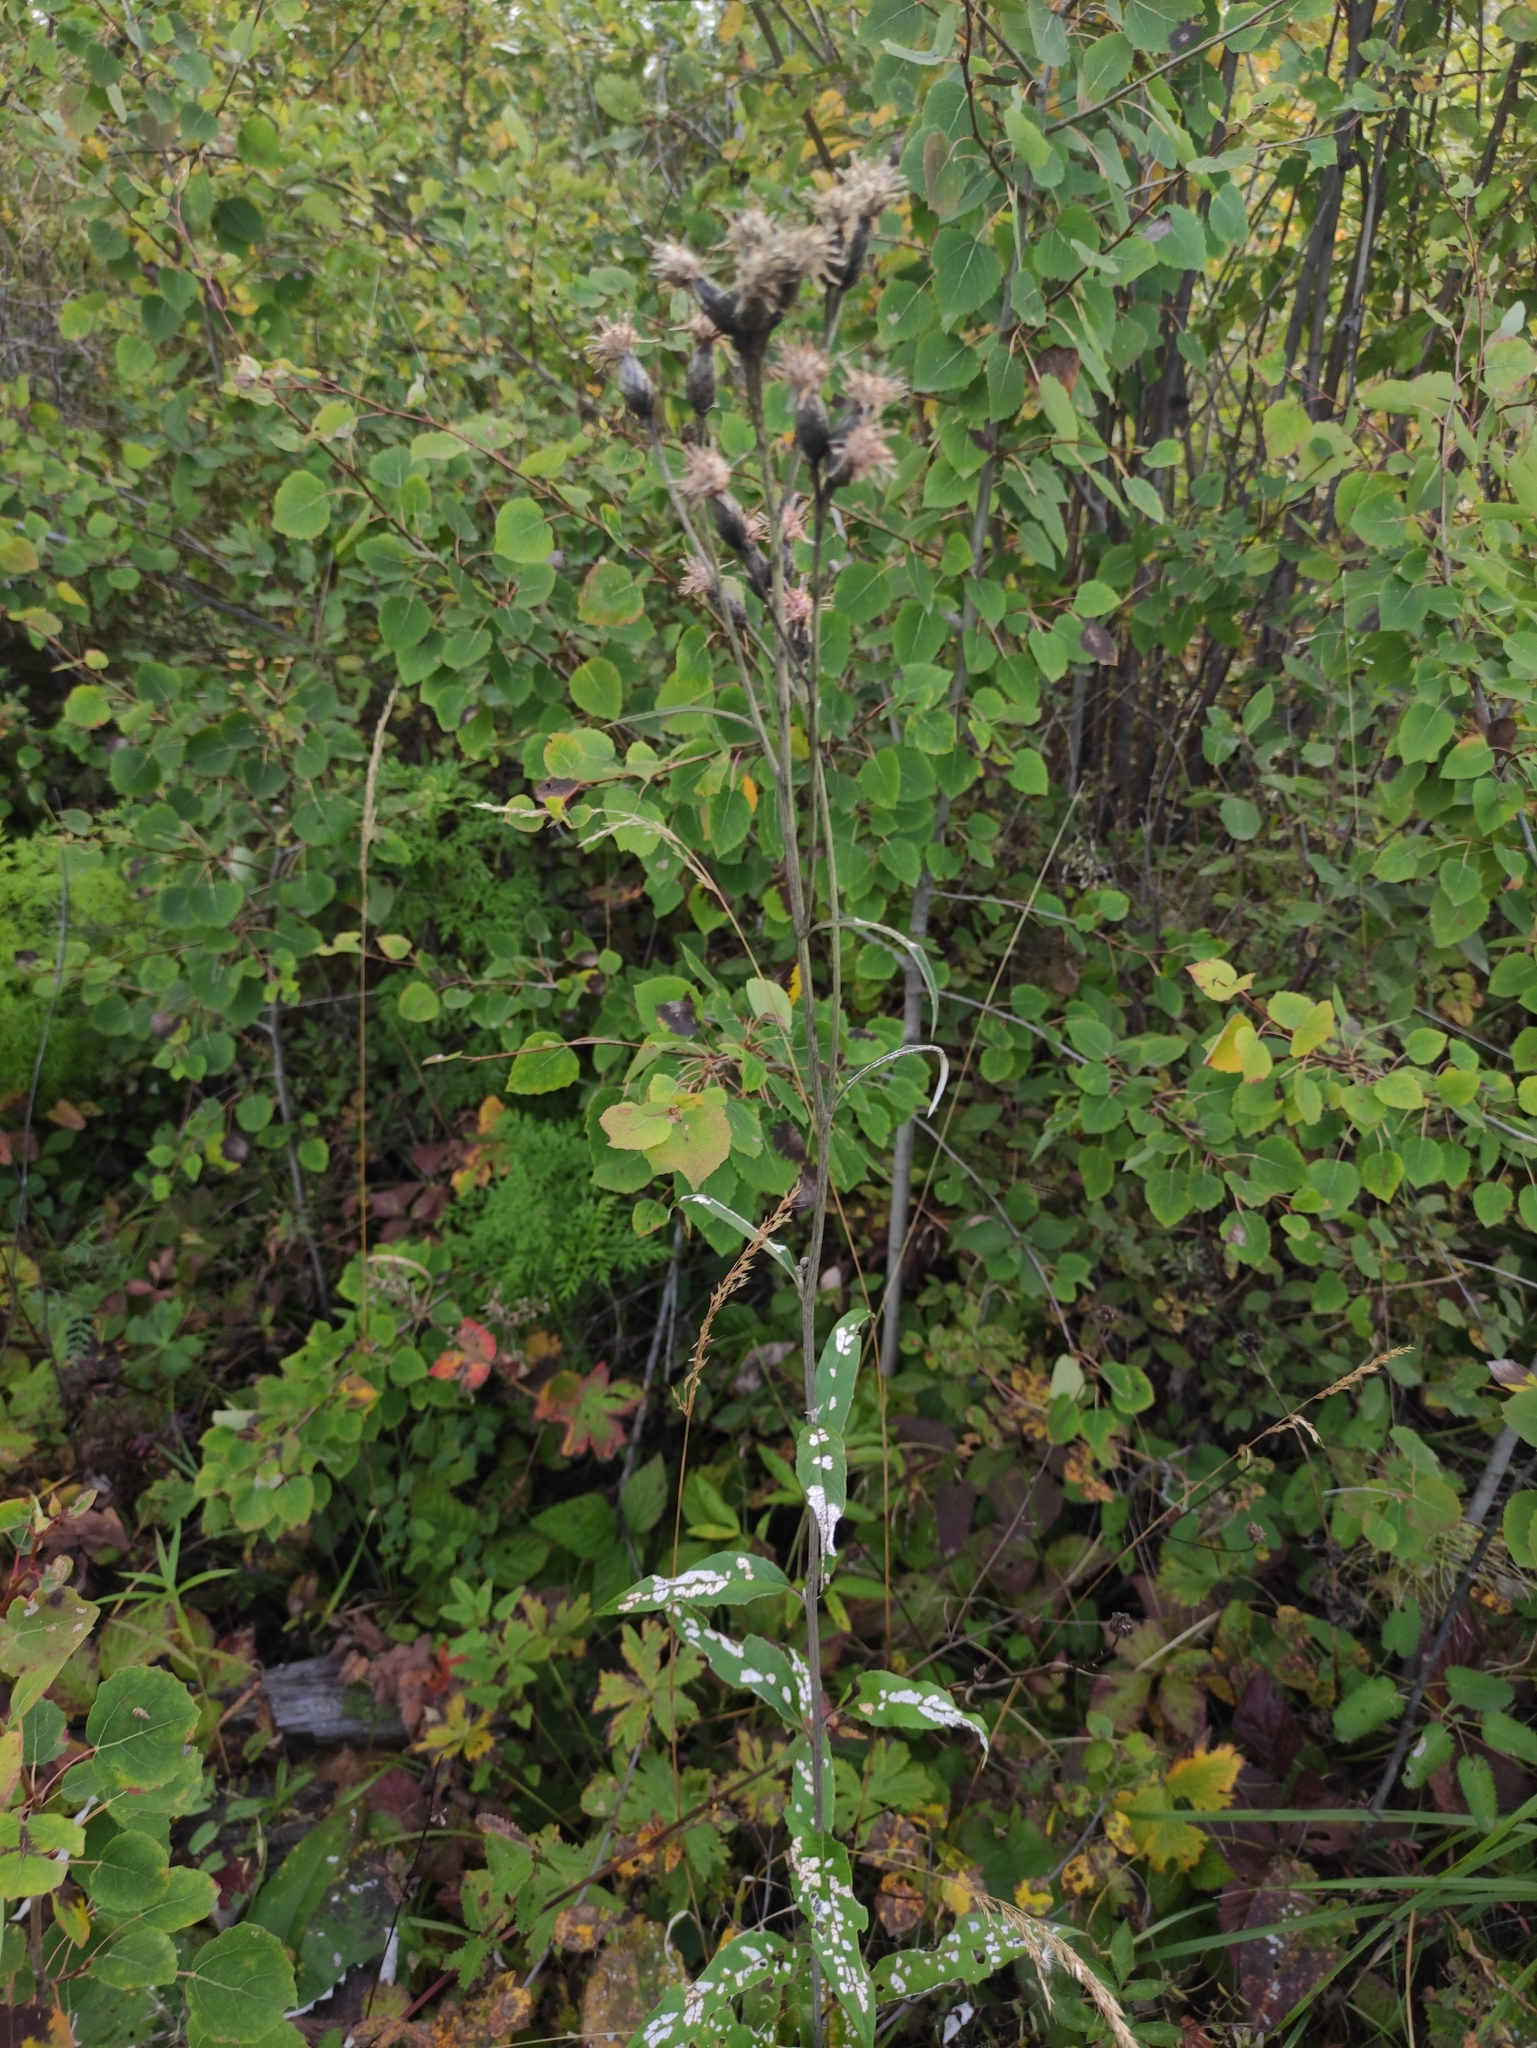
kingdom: Plantae
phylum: Tracheophyta
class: Magnoliopsida
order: Asterales
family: Asteraceae
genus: Saussurea
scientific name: Saussurea controversa
